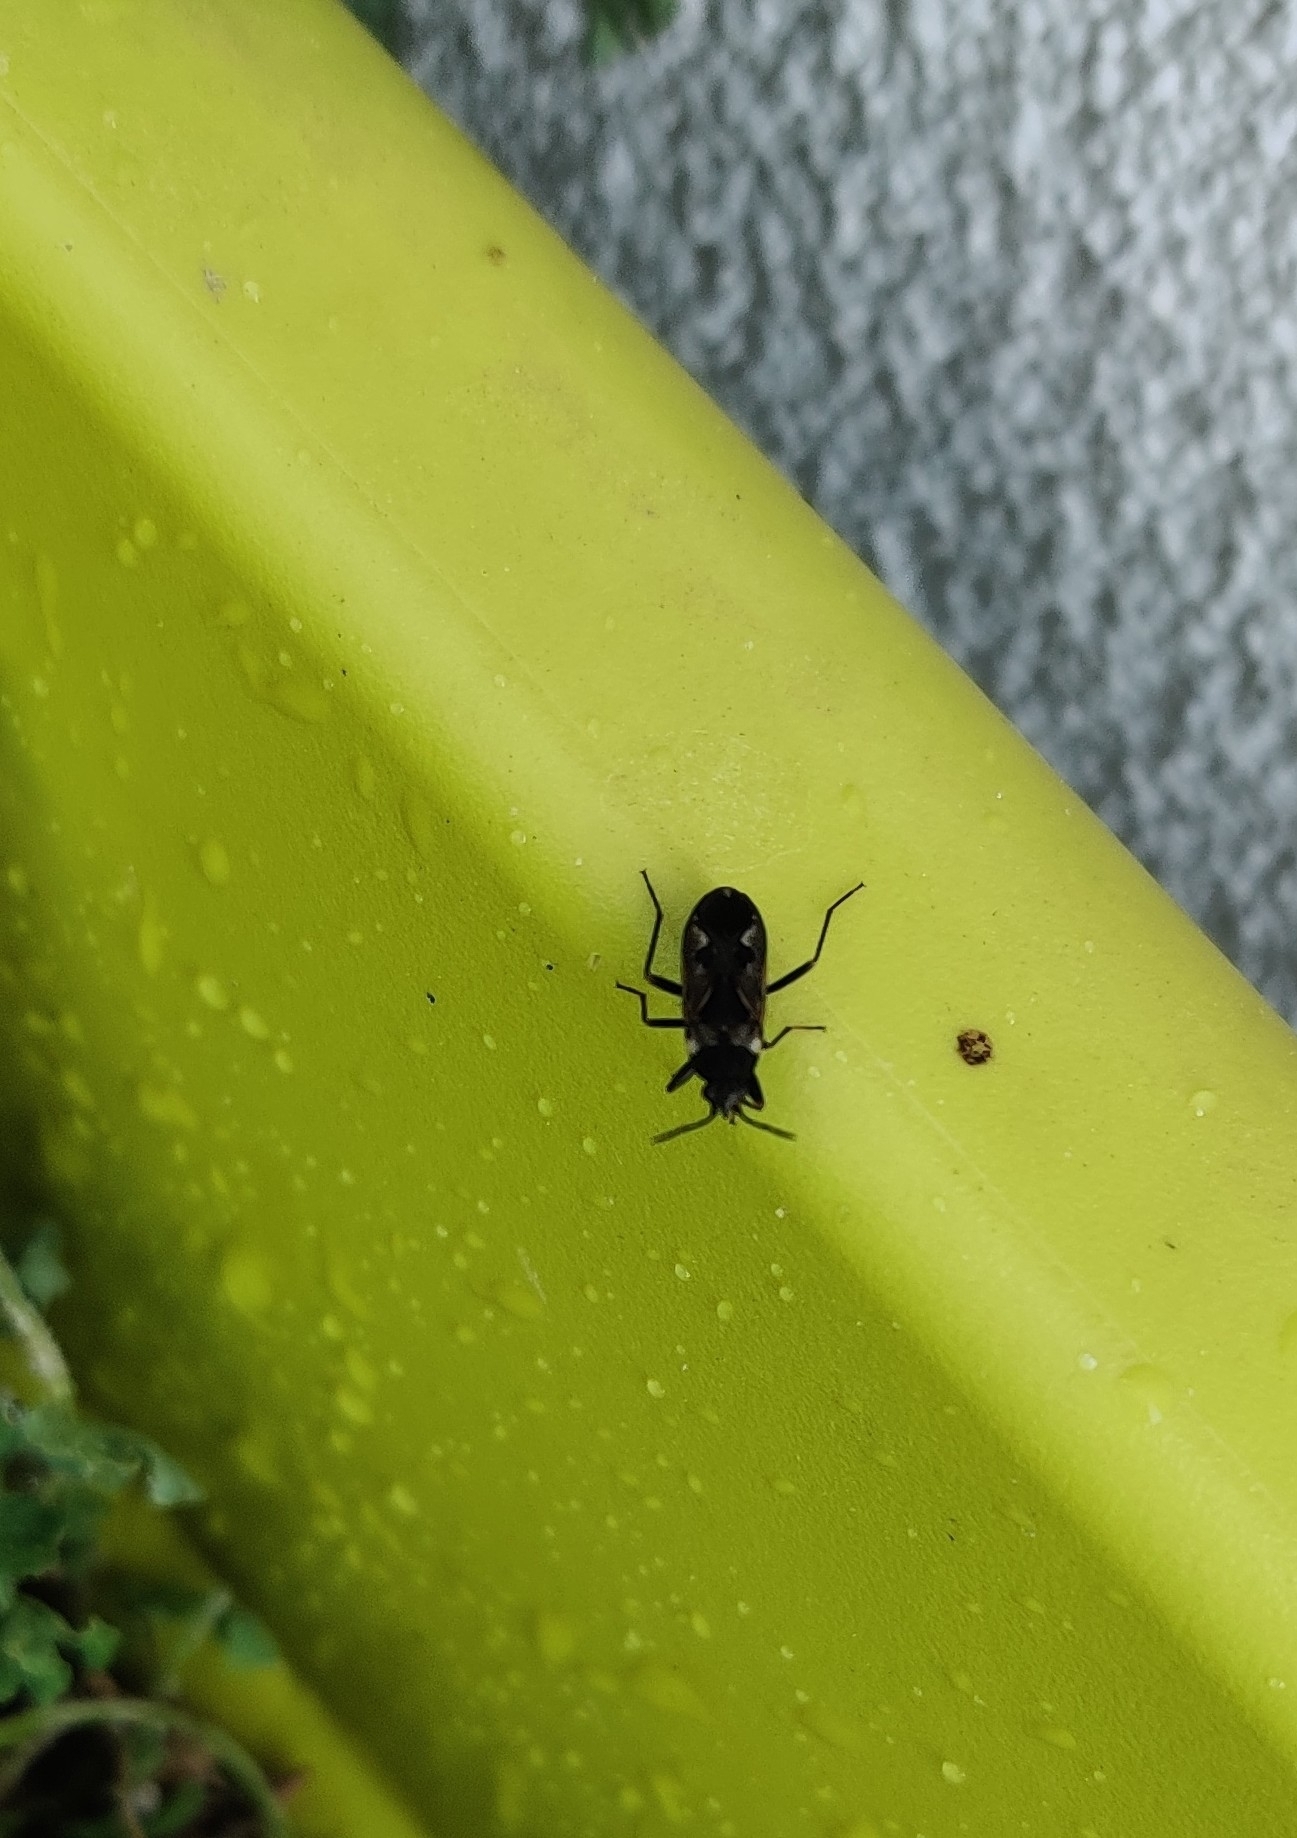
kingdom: Animalia
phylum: Arthropoda
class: Insecta
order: Hemiptera
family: Rhyparochromidae
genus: Rhyparochromus
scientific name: Rhyparochromus vulgaris
